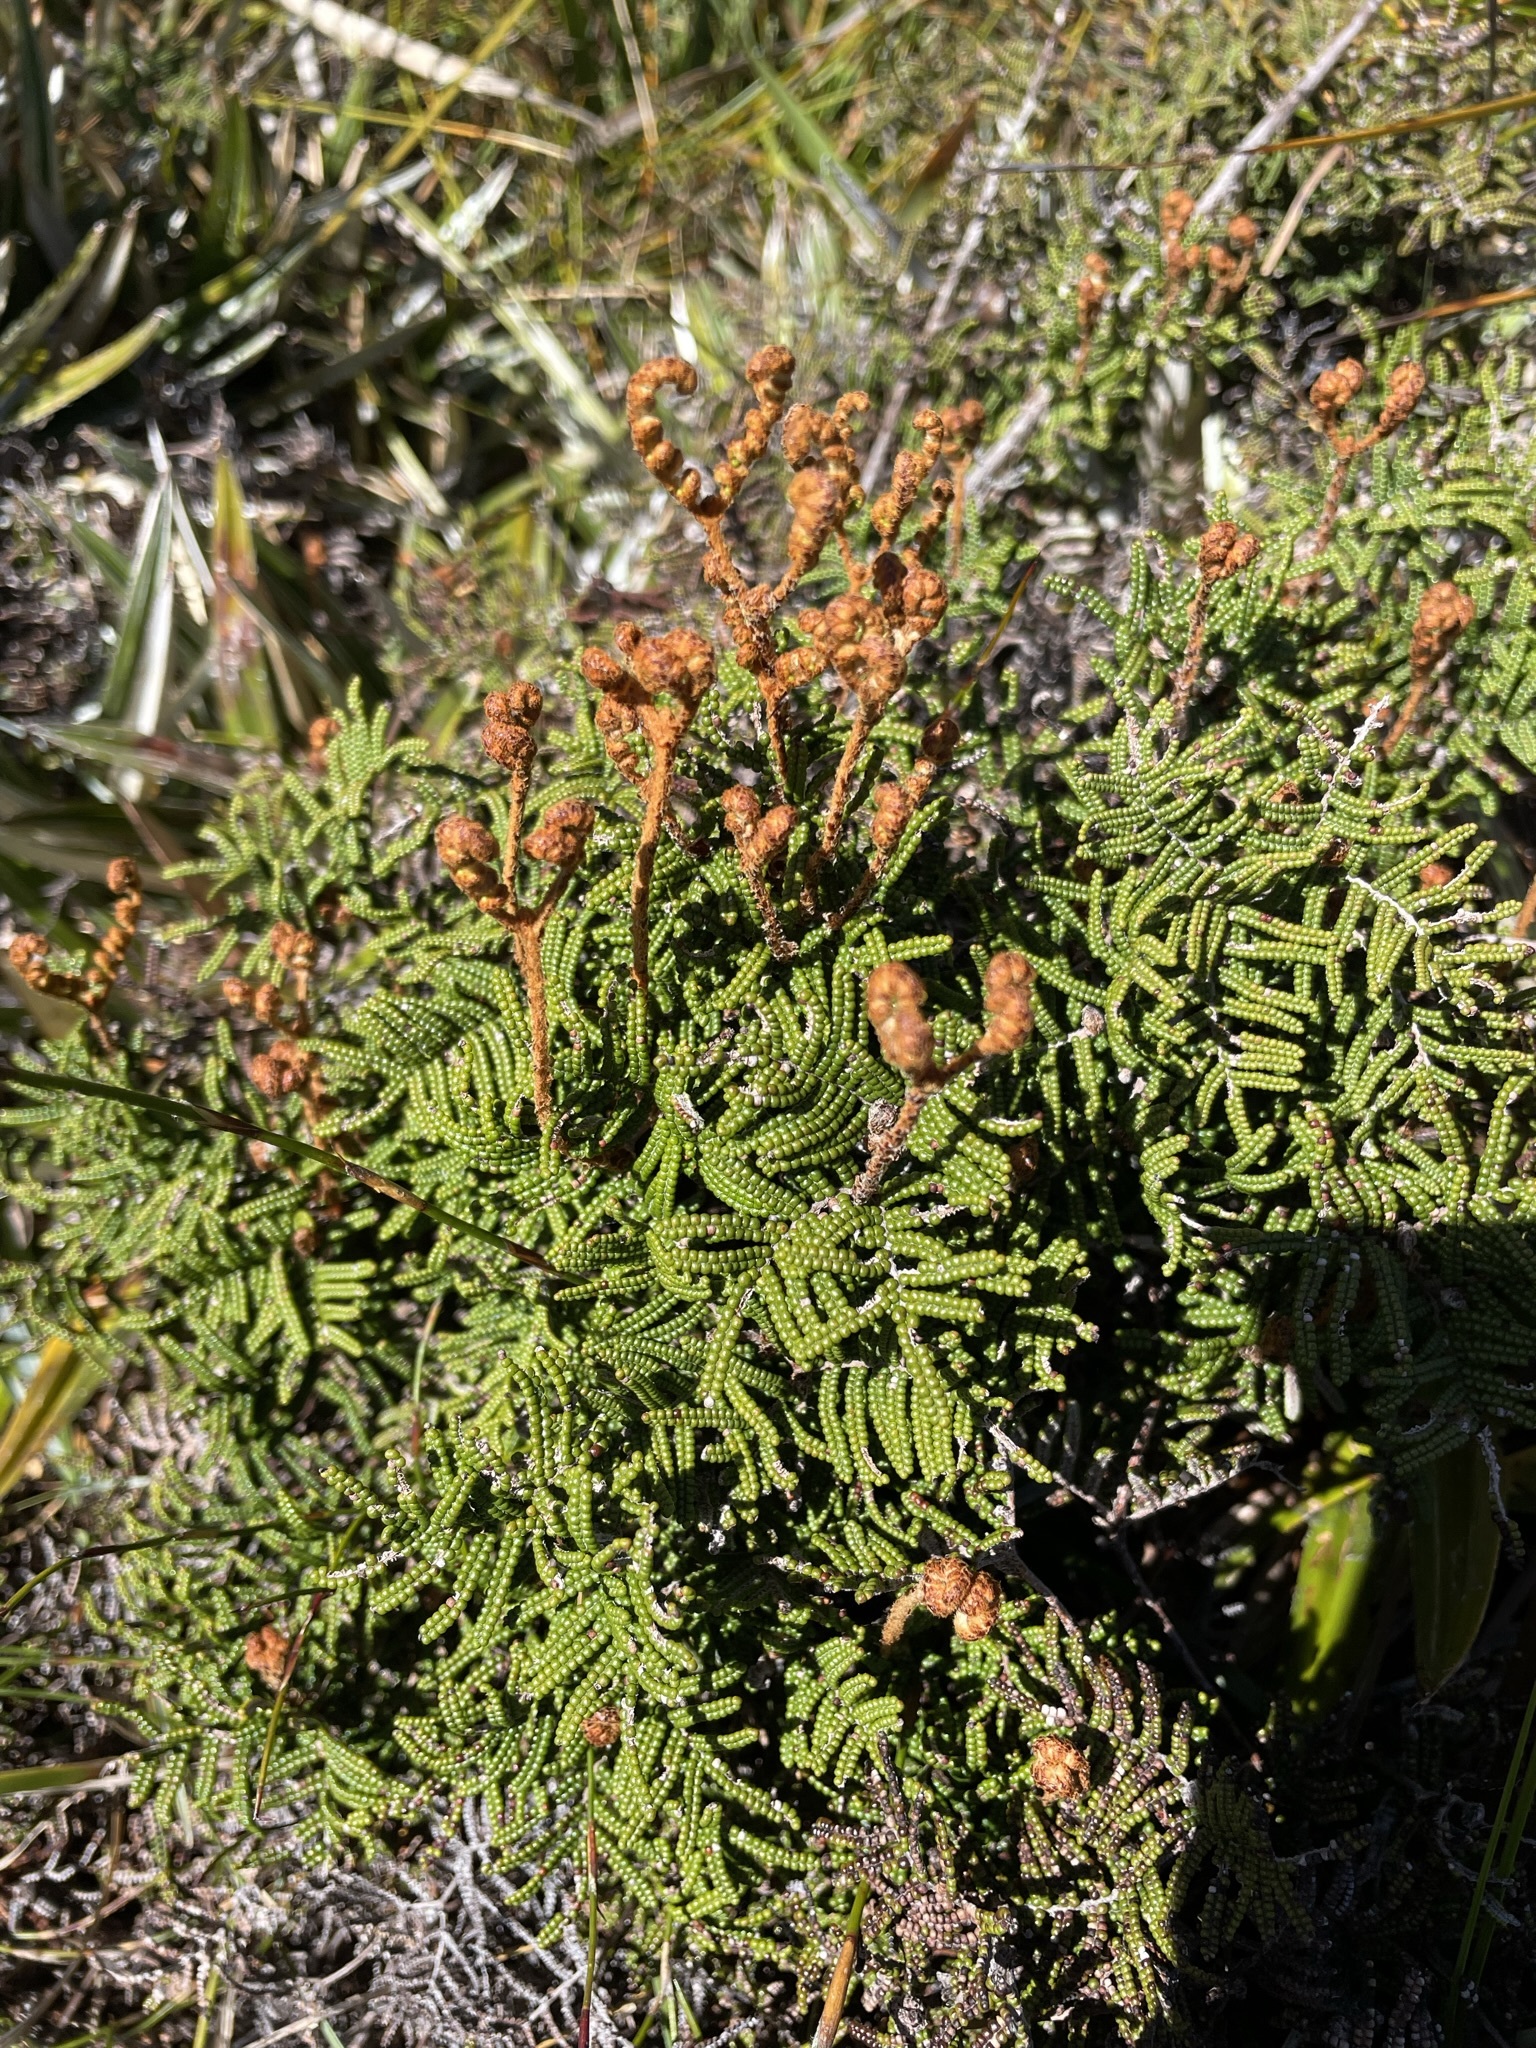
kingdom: Plantae
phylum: Tracheophyta
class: Polypodiopsida
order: Gleicheniales
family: Gleicheniaceae
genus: Gleichenia
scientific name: Gleichenia alpina
